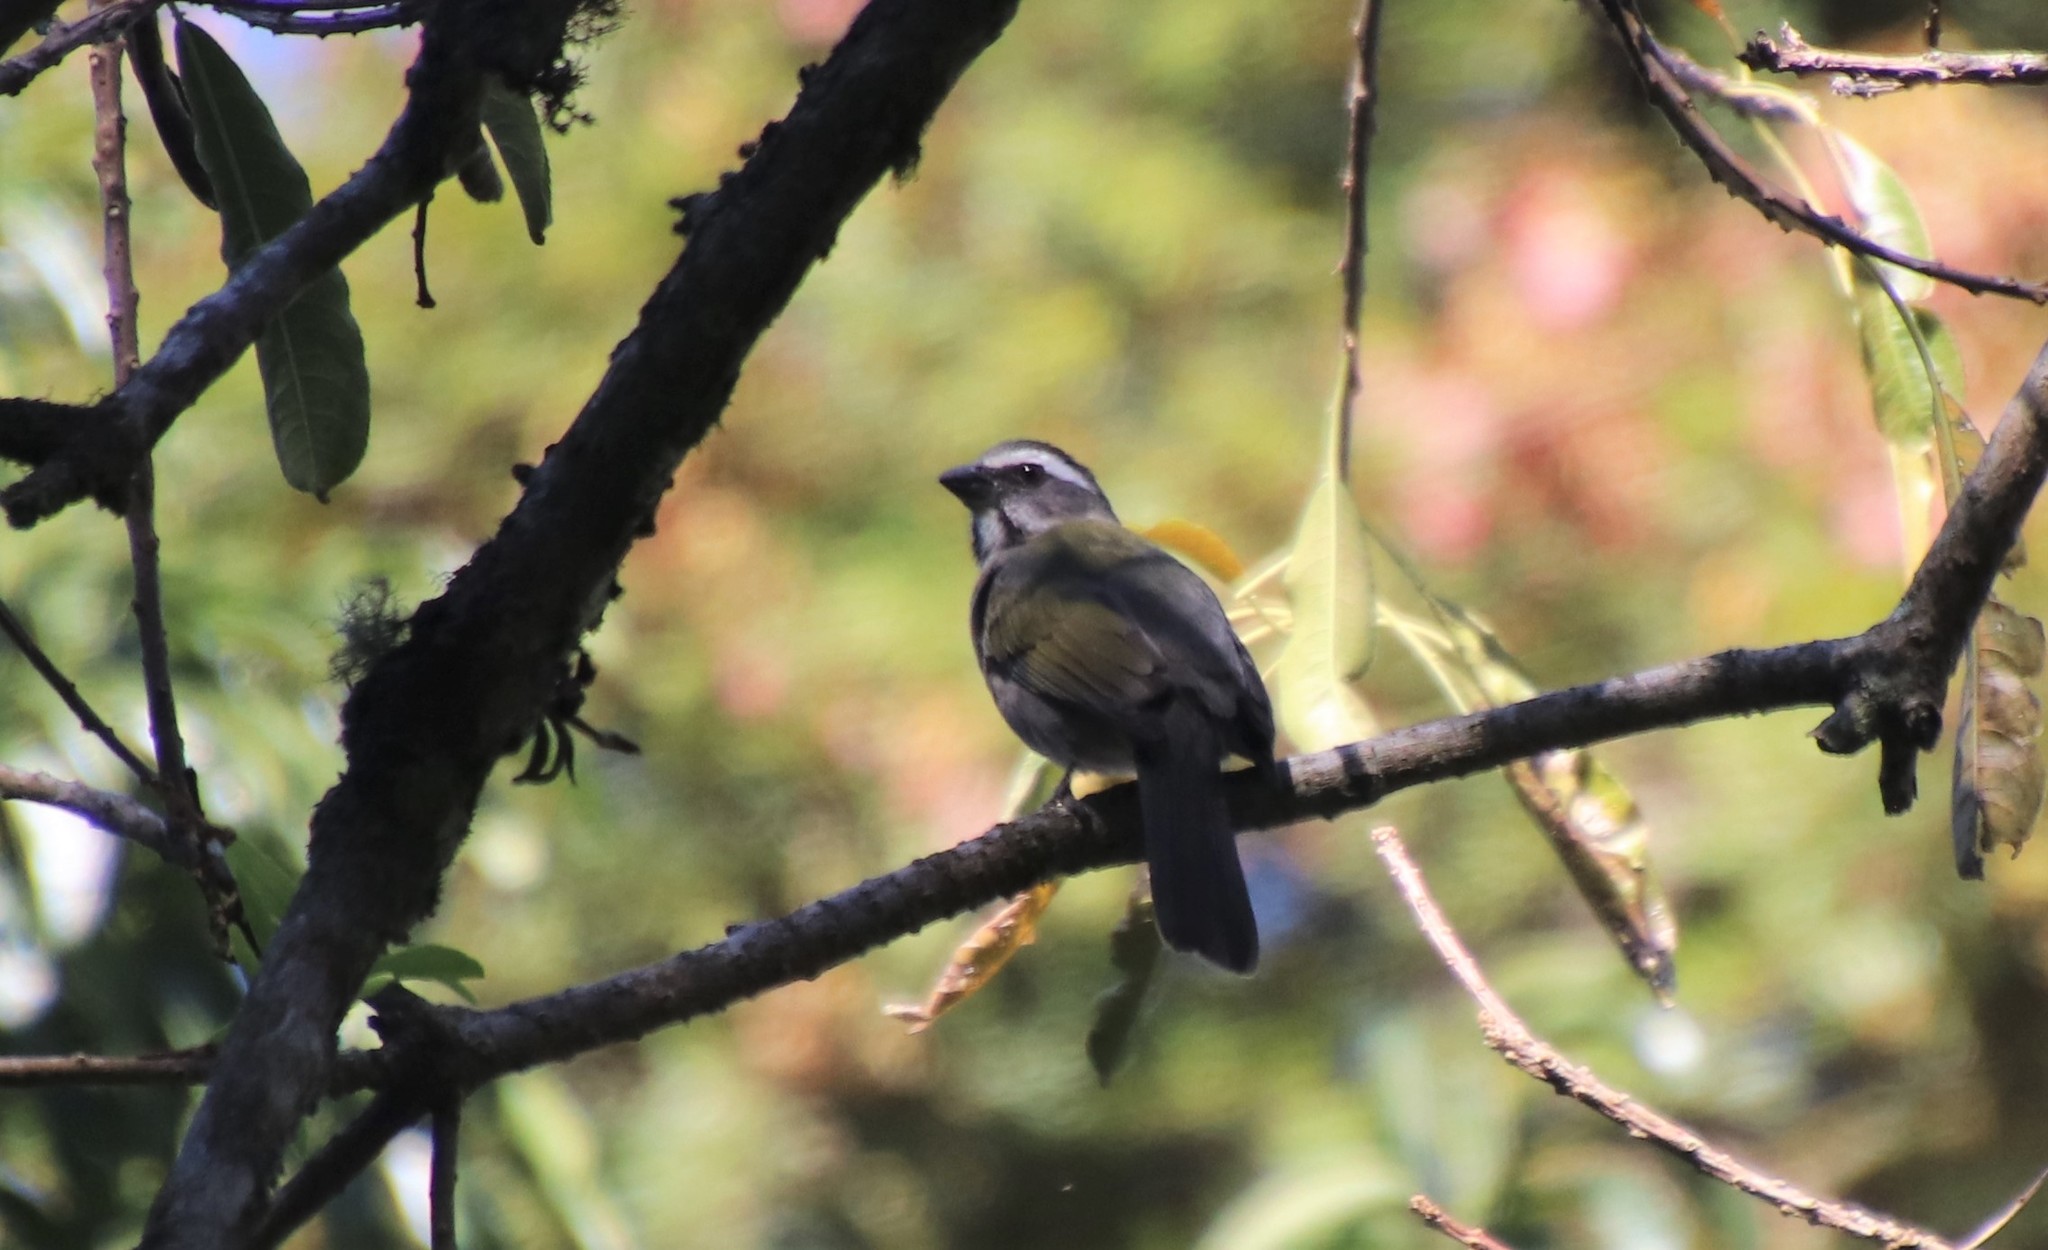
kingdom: Animalia
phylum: Chordata
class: Aves
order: Passeriformes
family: Thraupidae
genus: Saltator
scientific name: Saltator similis
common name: Green-winged saltator
